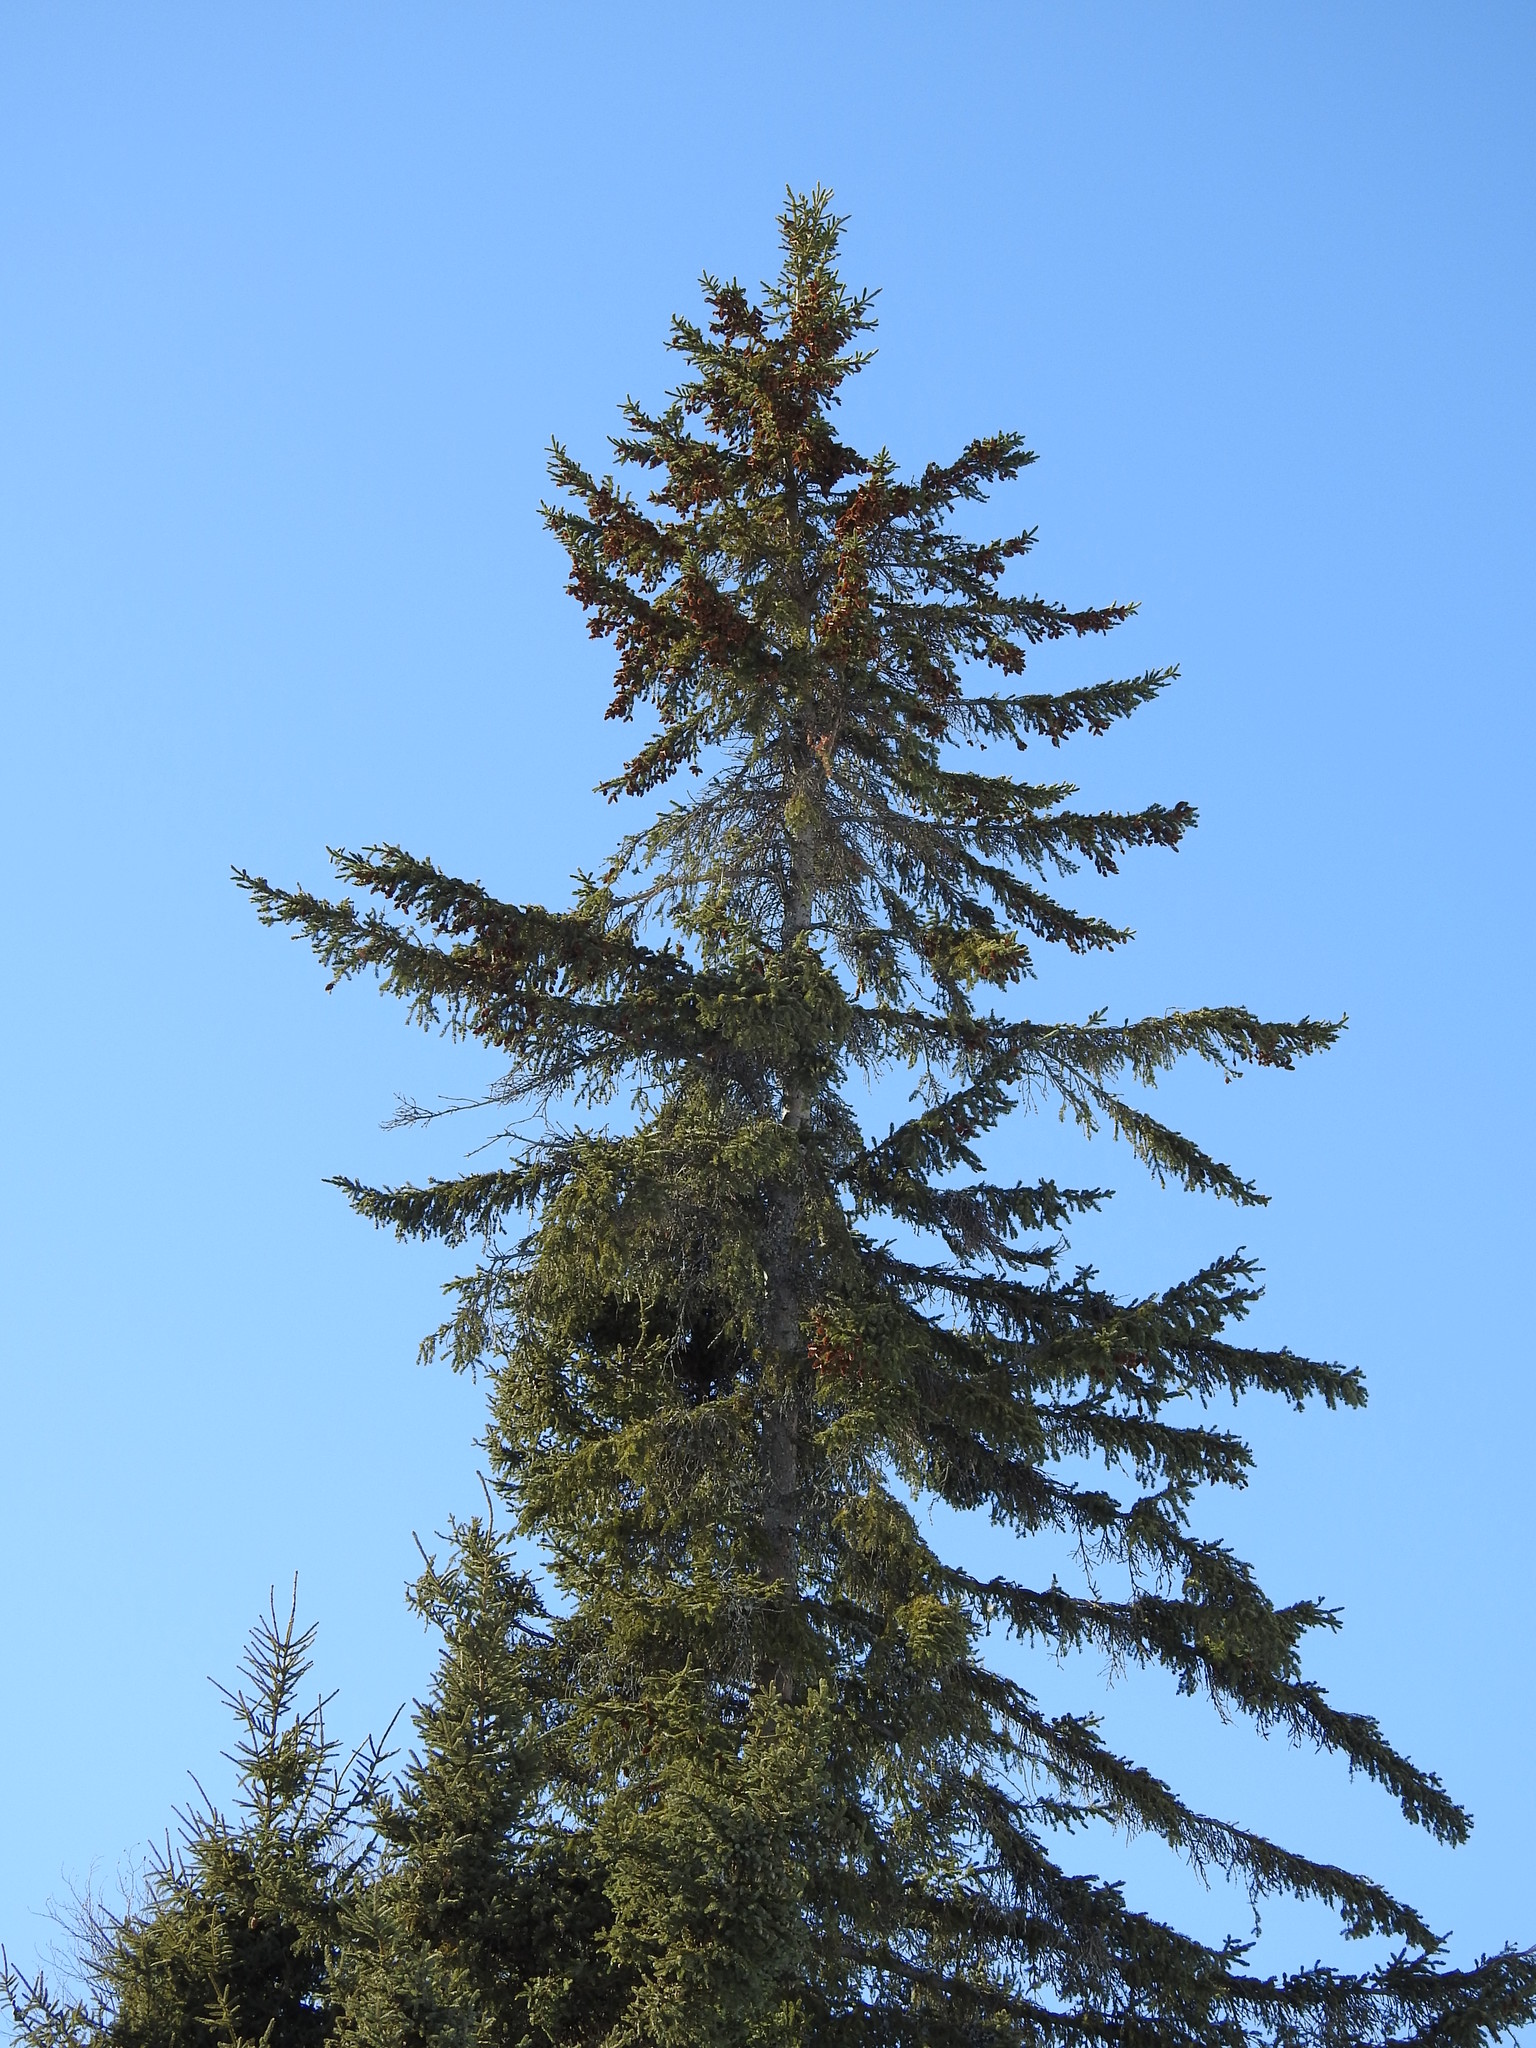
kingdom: Plantae
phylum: Tracheophyta
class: Pinopsida
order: Pinales
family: Pinaceae
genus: Picea
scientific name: Picea glauca
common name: White spruce
